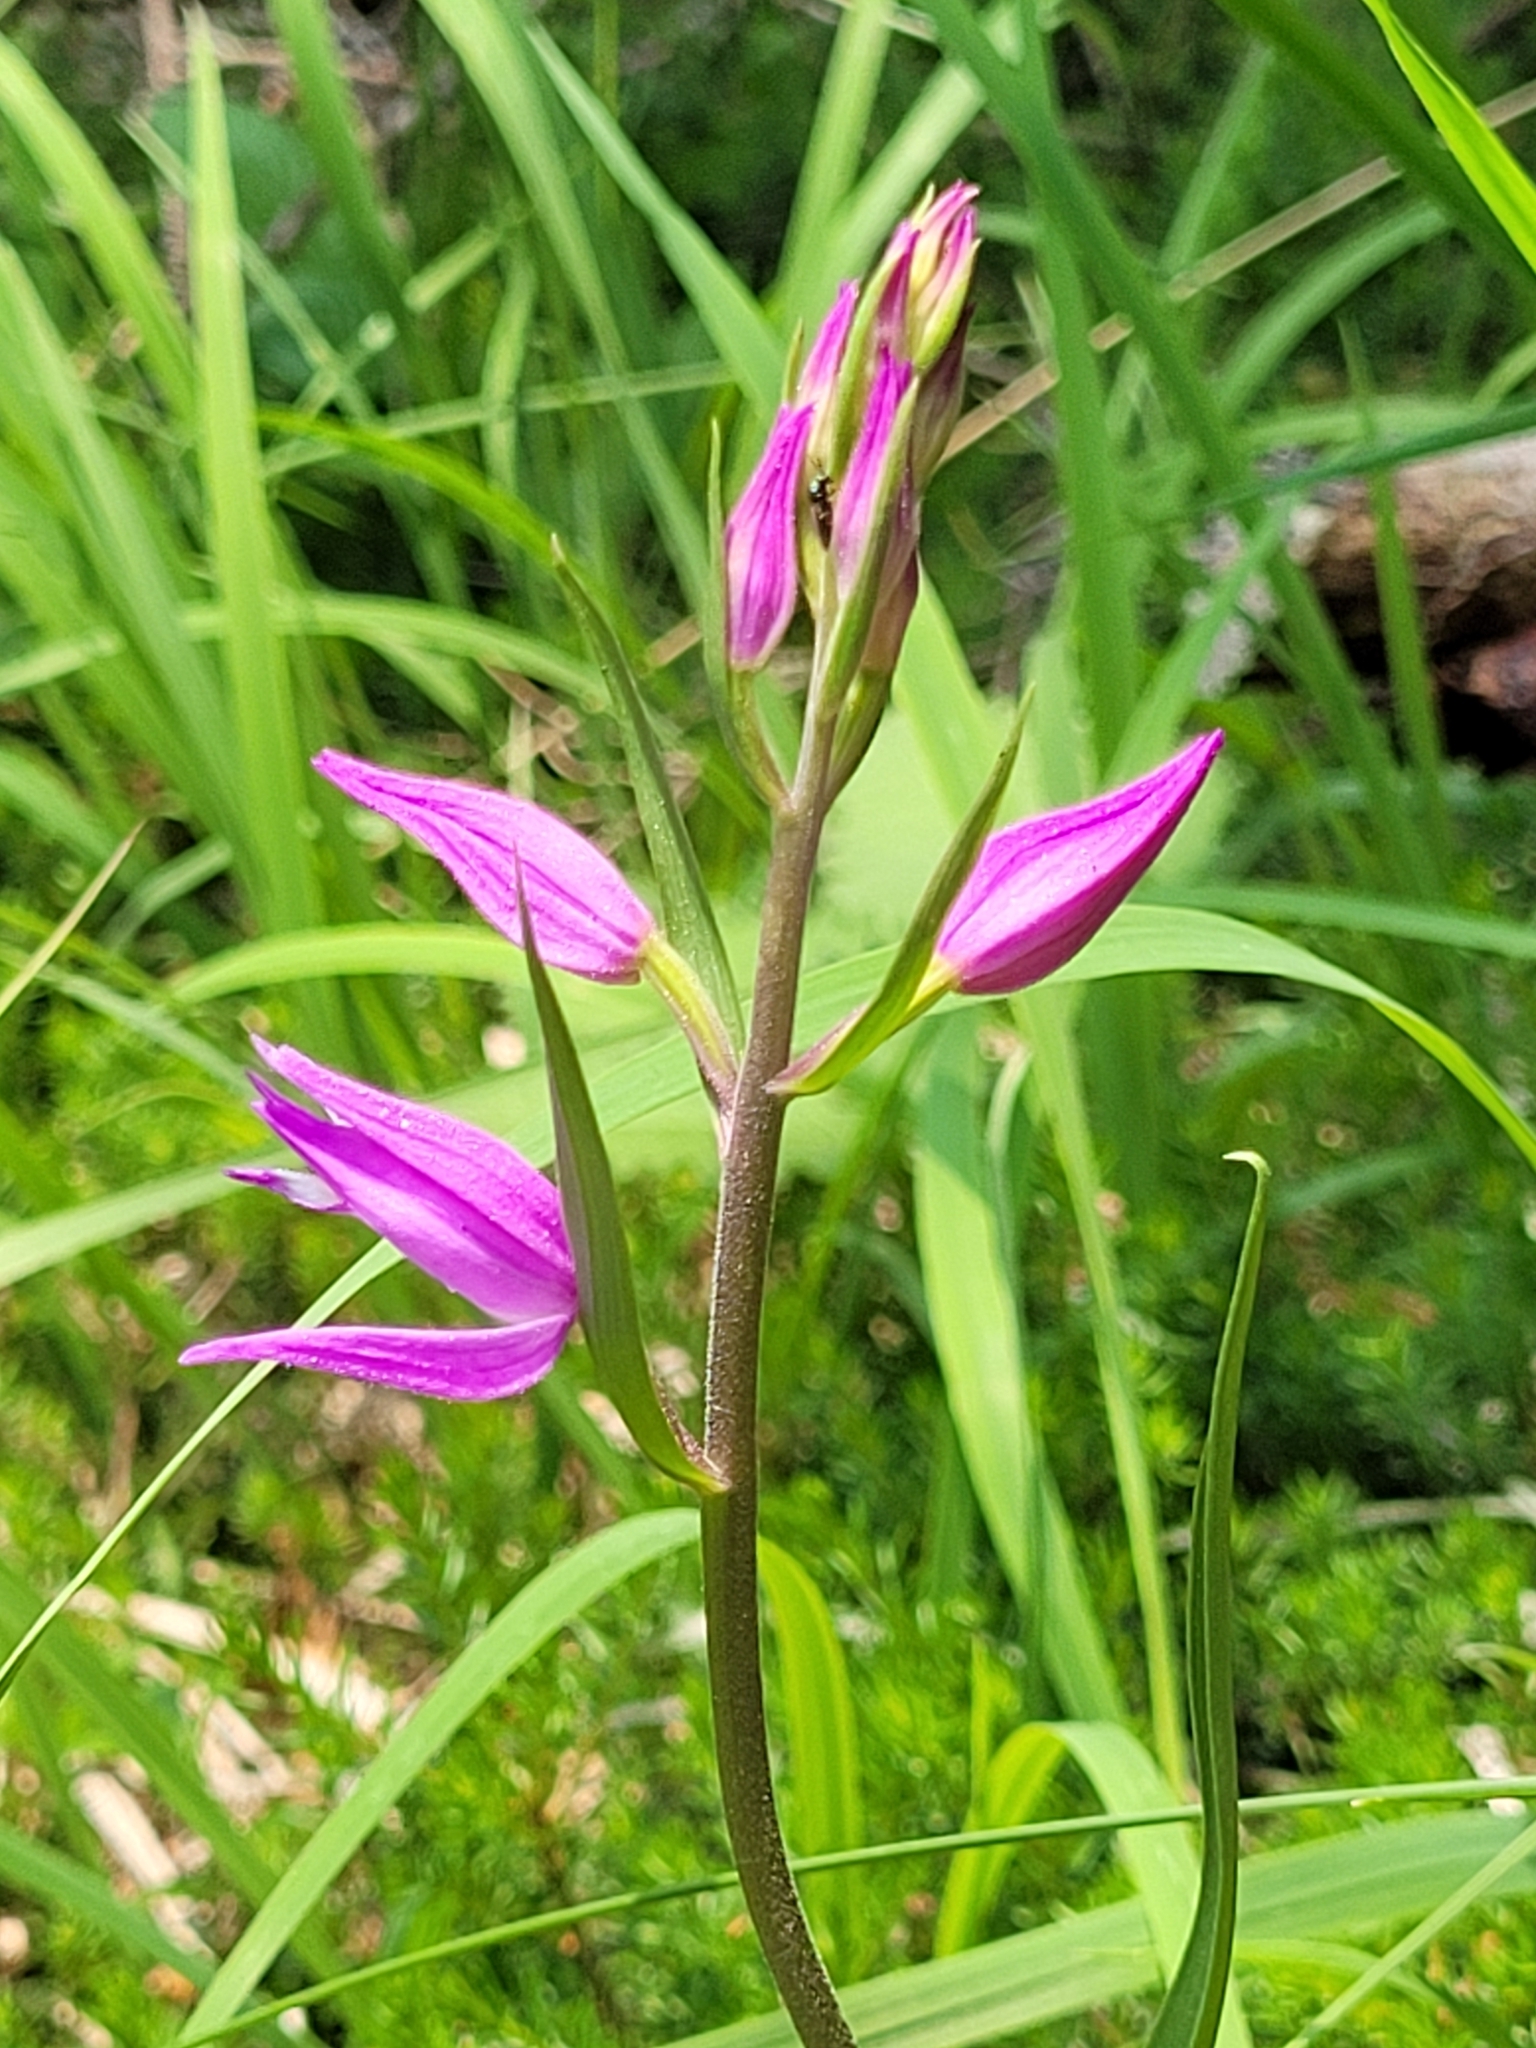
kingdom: Plantae
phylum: Tracheophyta
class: Liliopsida
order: Asparagales
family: Orchidaceae
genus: Cephalanthera
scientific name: Cephalanthera rubra
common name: Red helleborine
